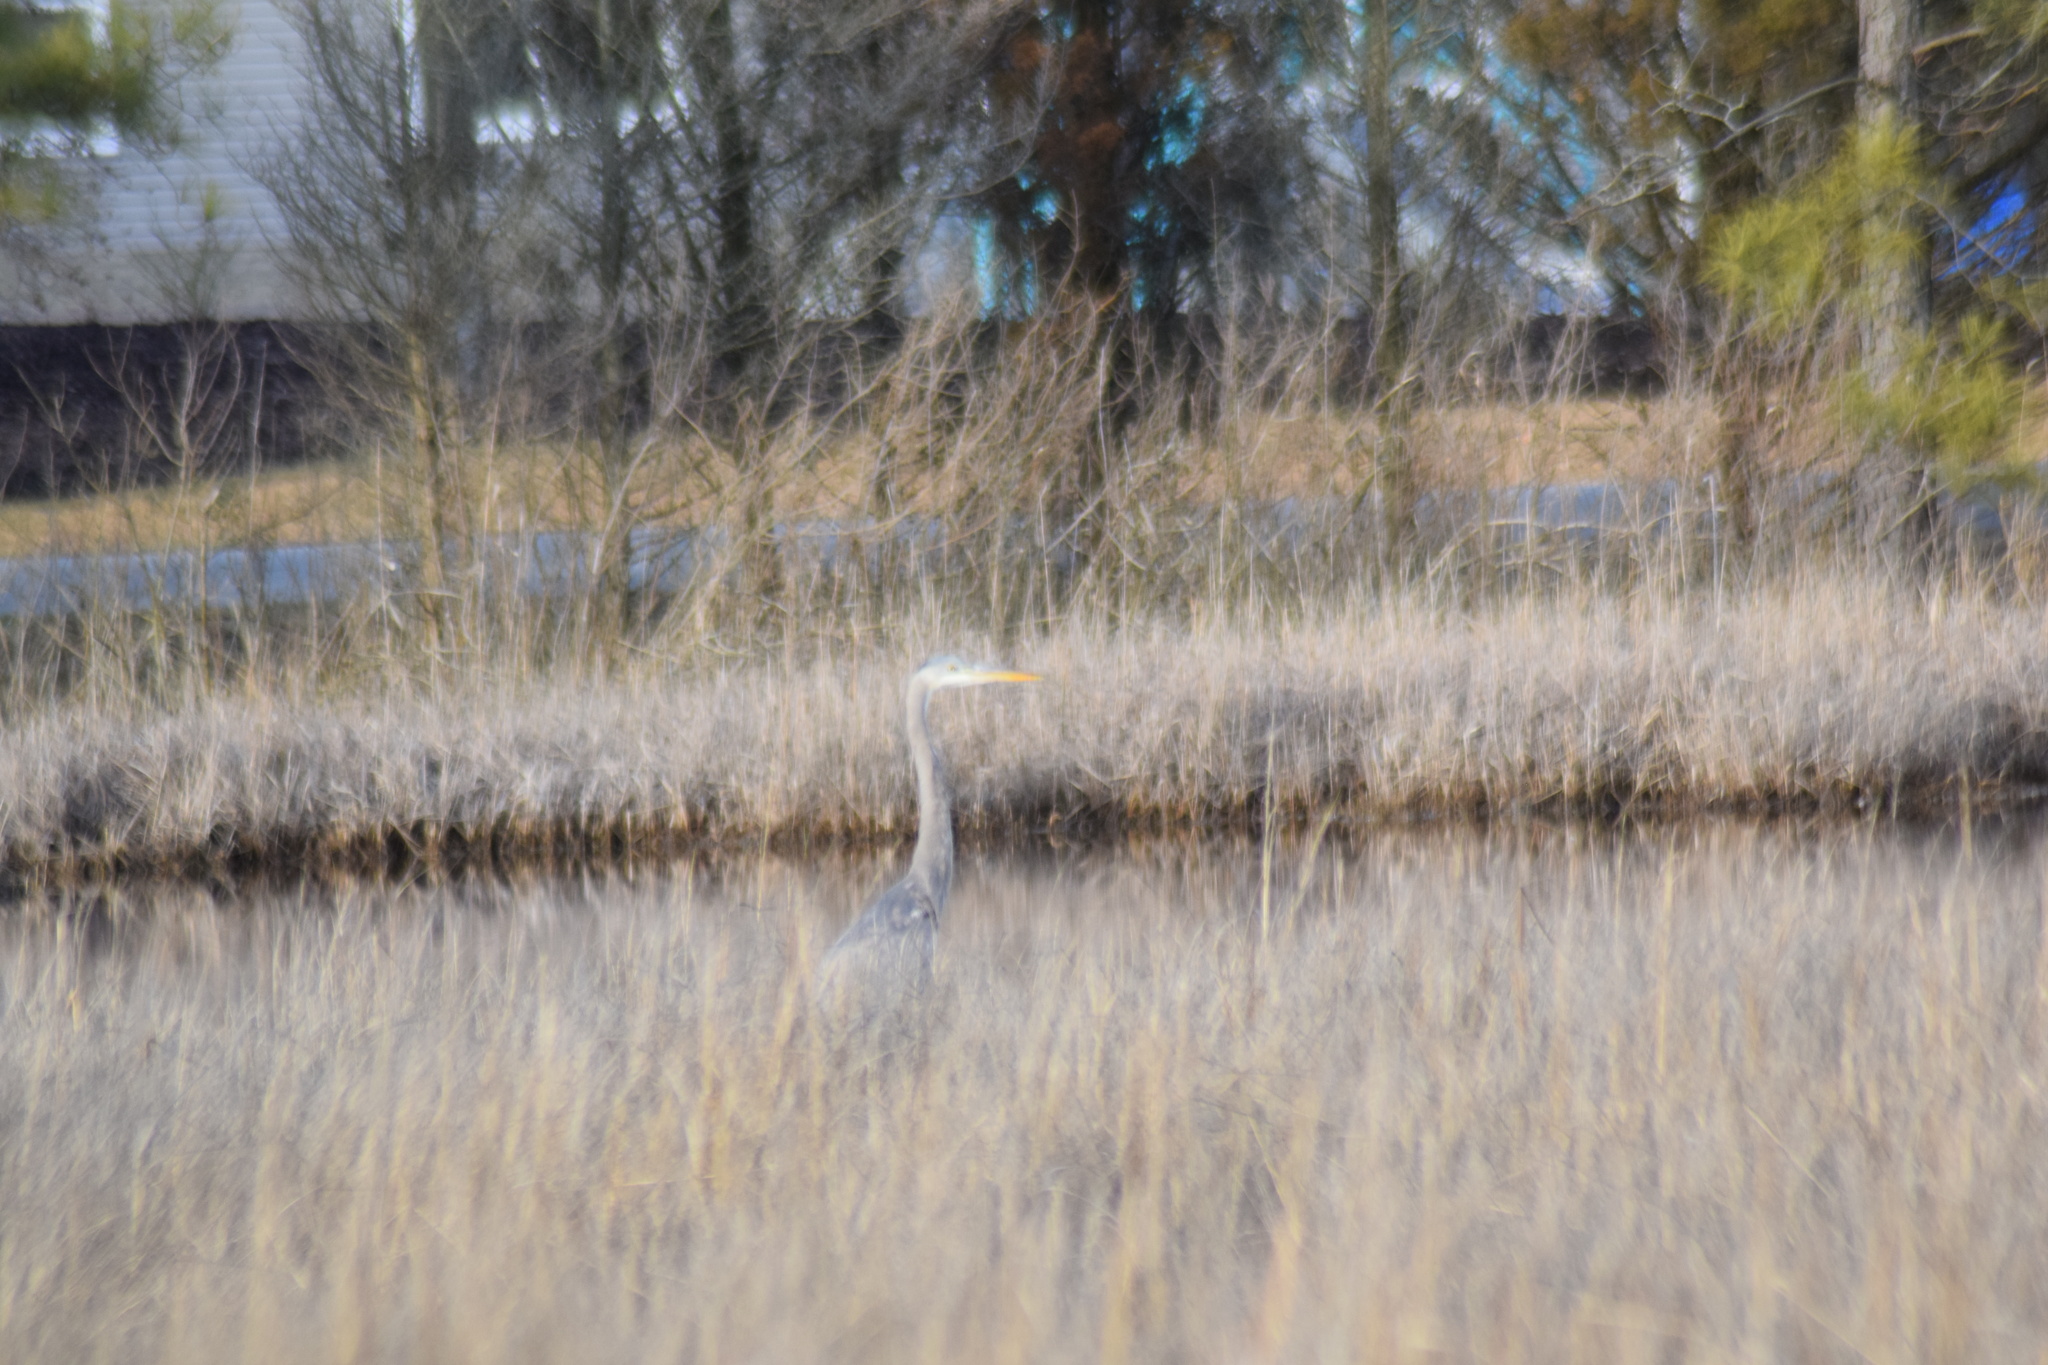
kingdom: Animalia
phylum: Chordata
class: Aves
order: Pelecaniformes
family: Ardeidae
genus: Ardea
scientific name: Ardea herodias
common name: Great blue heron
